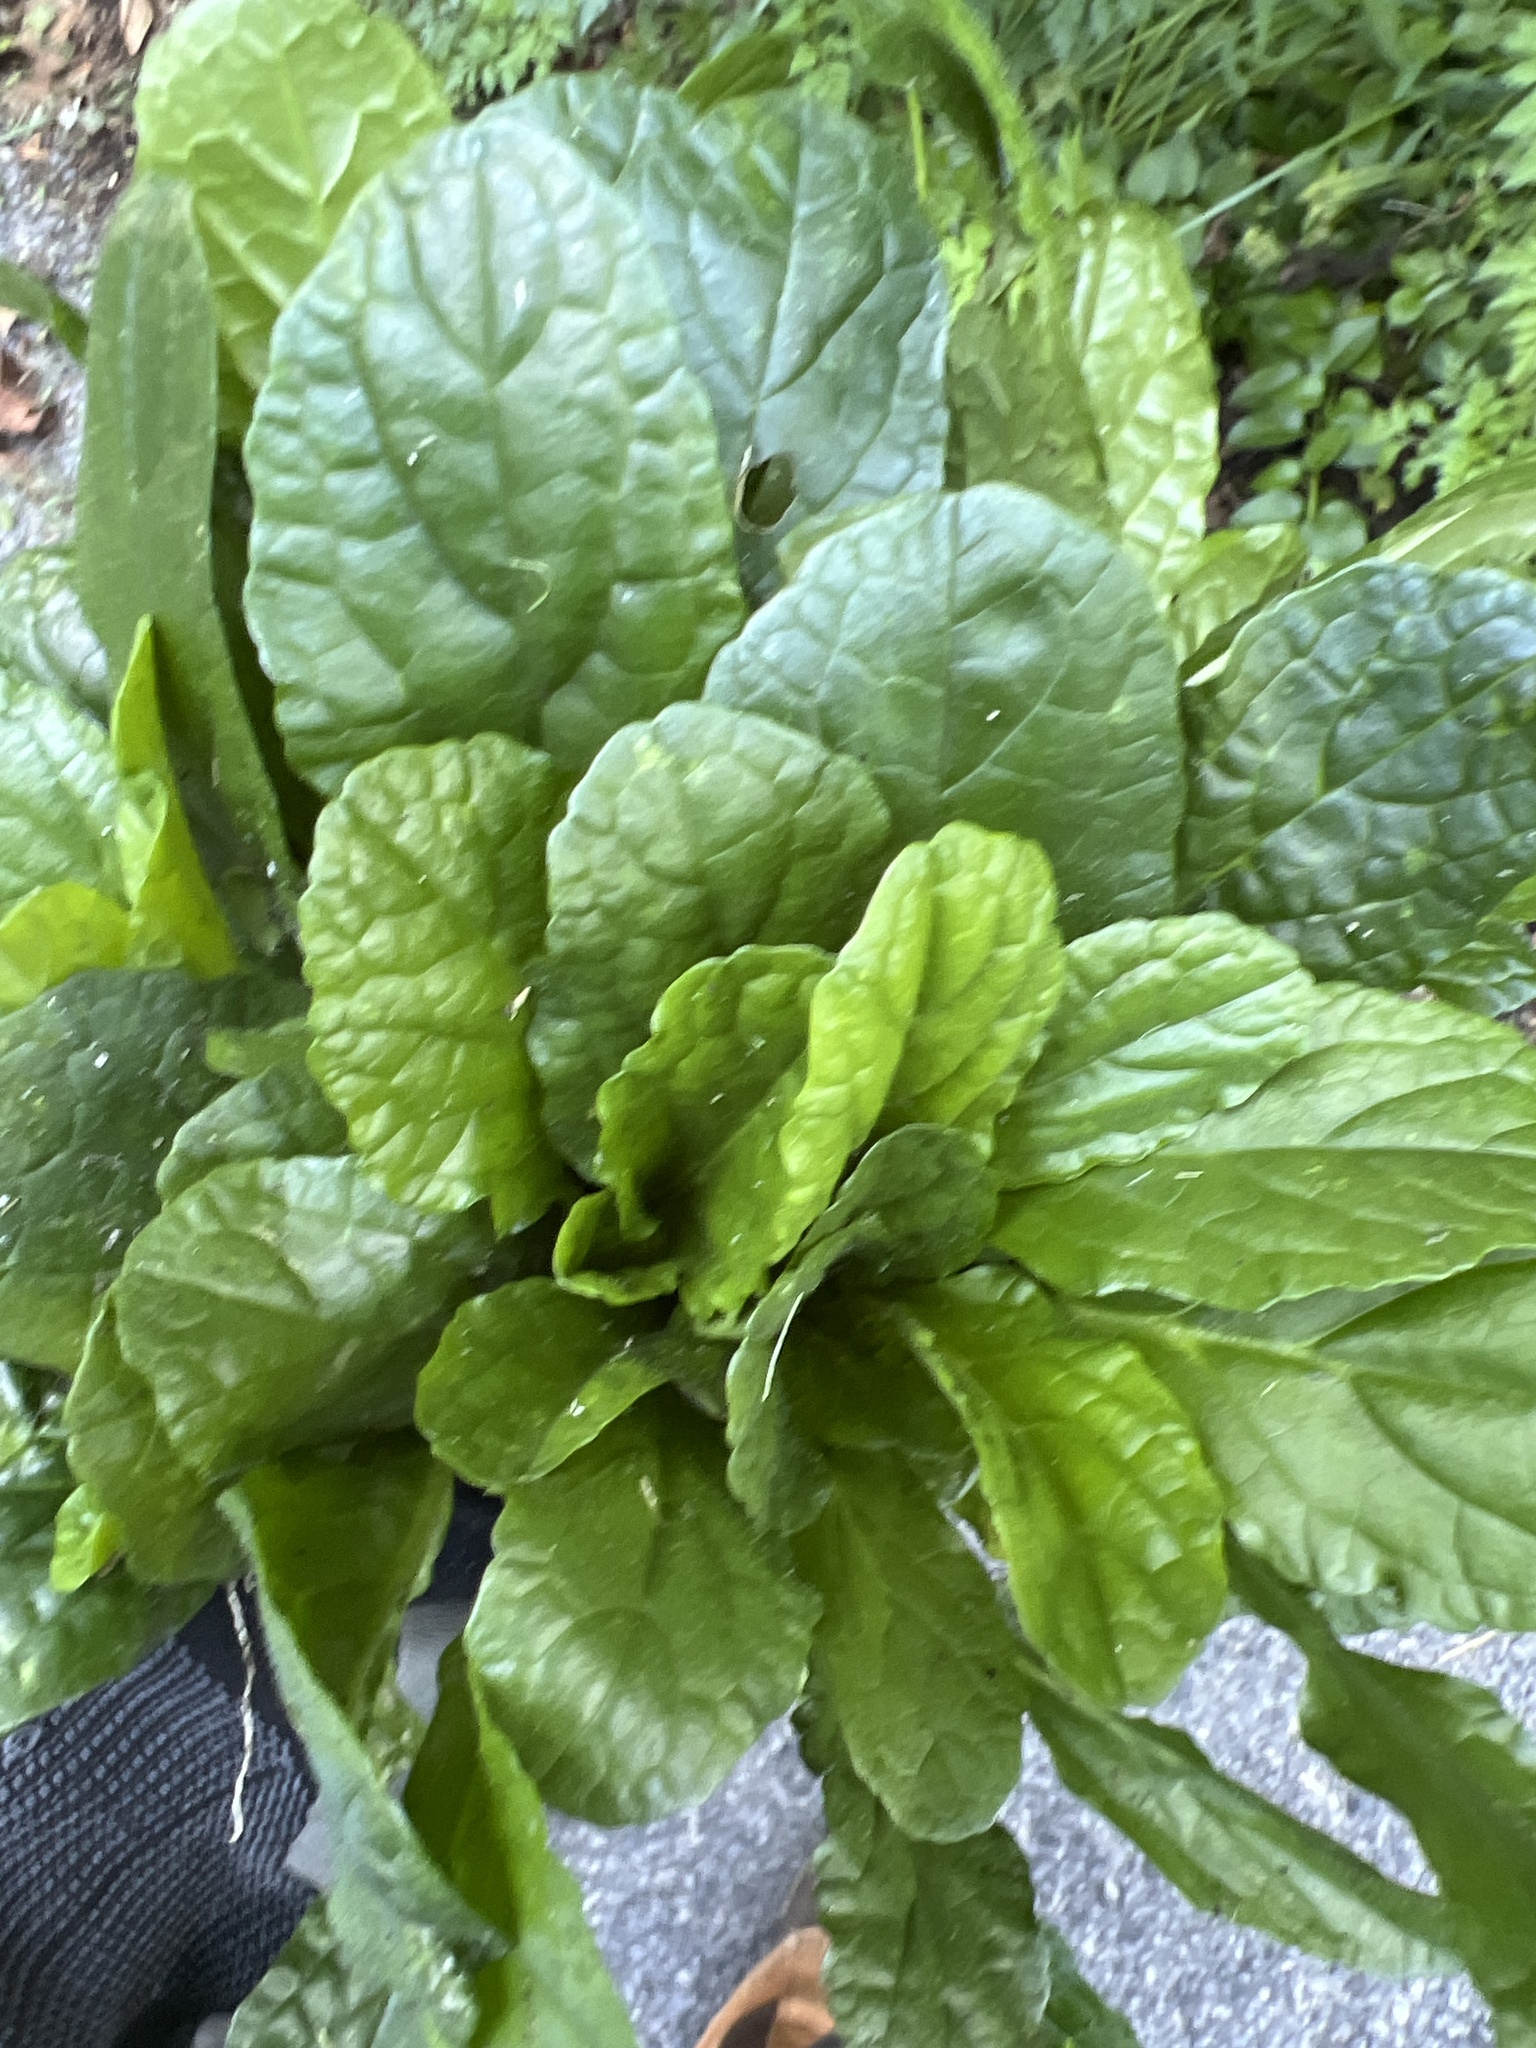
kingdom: Plantae
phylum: Tracheophyta
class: Magnoliopsida
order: Lamiales
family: Lamiaceae
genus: Ajuga
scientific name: Ajuga reptans
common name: Bugle
